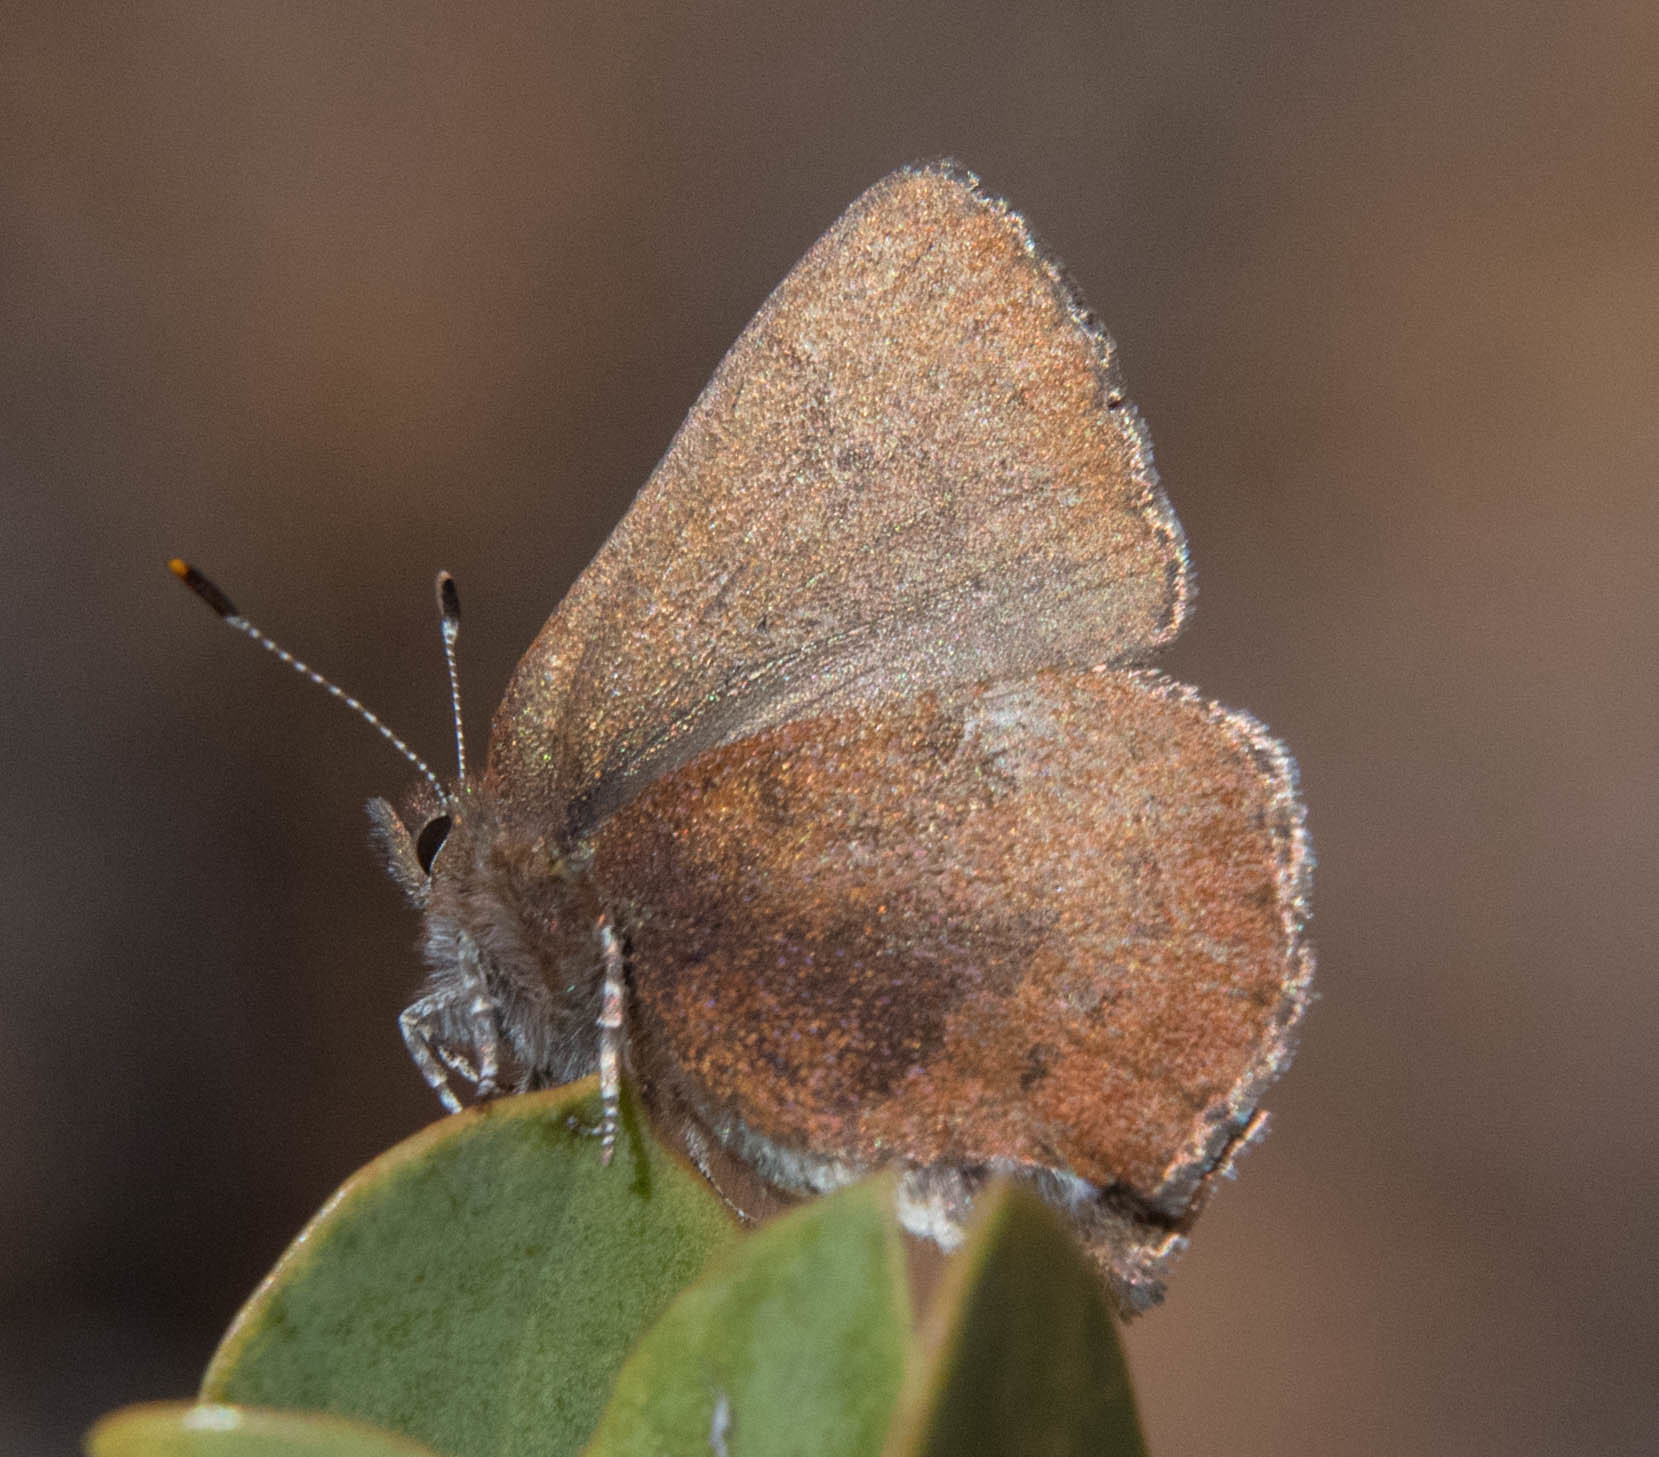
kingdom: Animalia
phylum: Arthropoda
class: Insecta
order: Lepidoptera
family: Lycaenidae
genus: Incisalia
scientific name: Incisalia irioides
